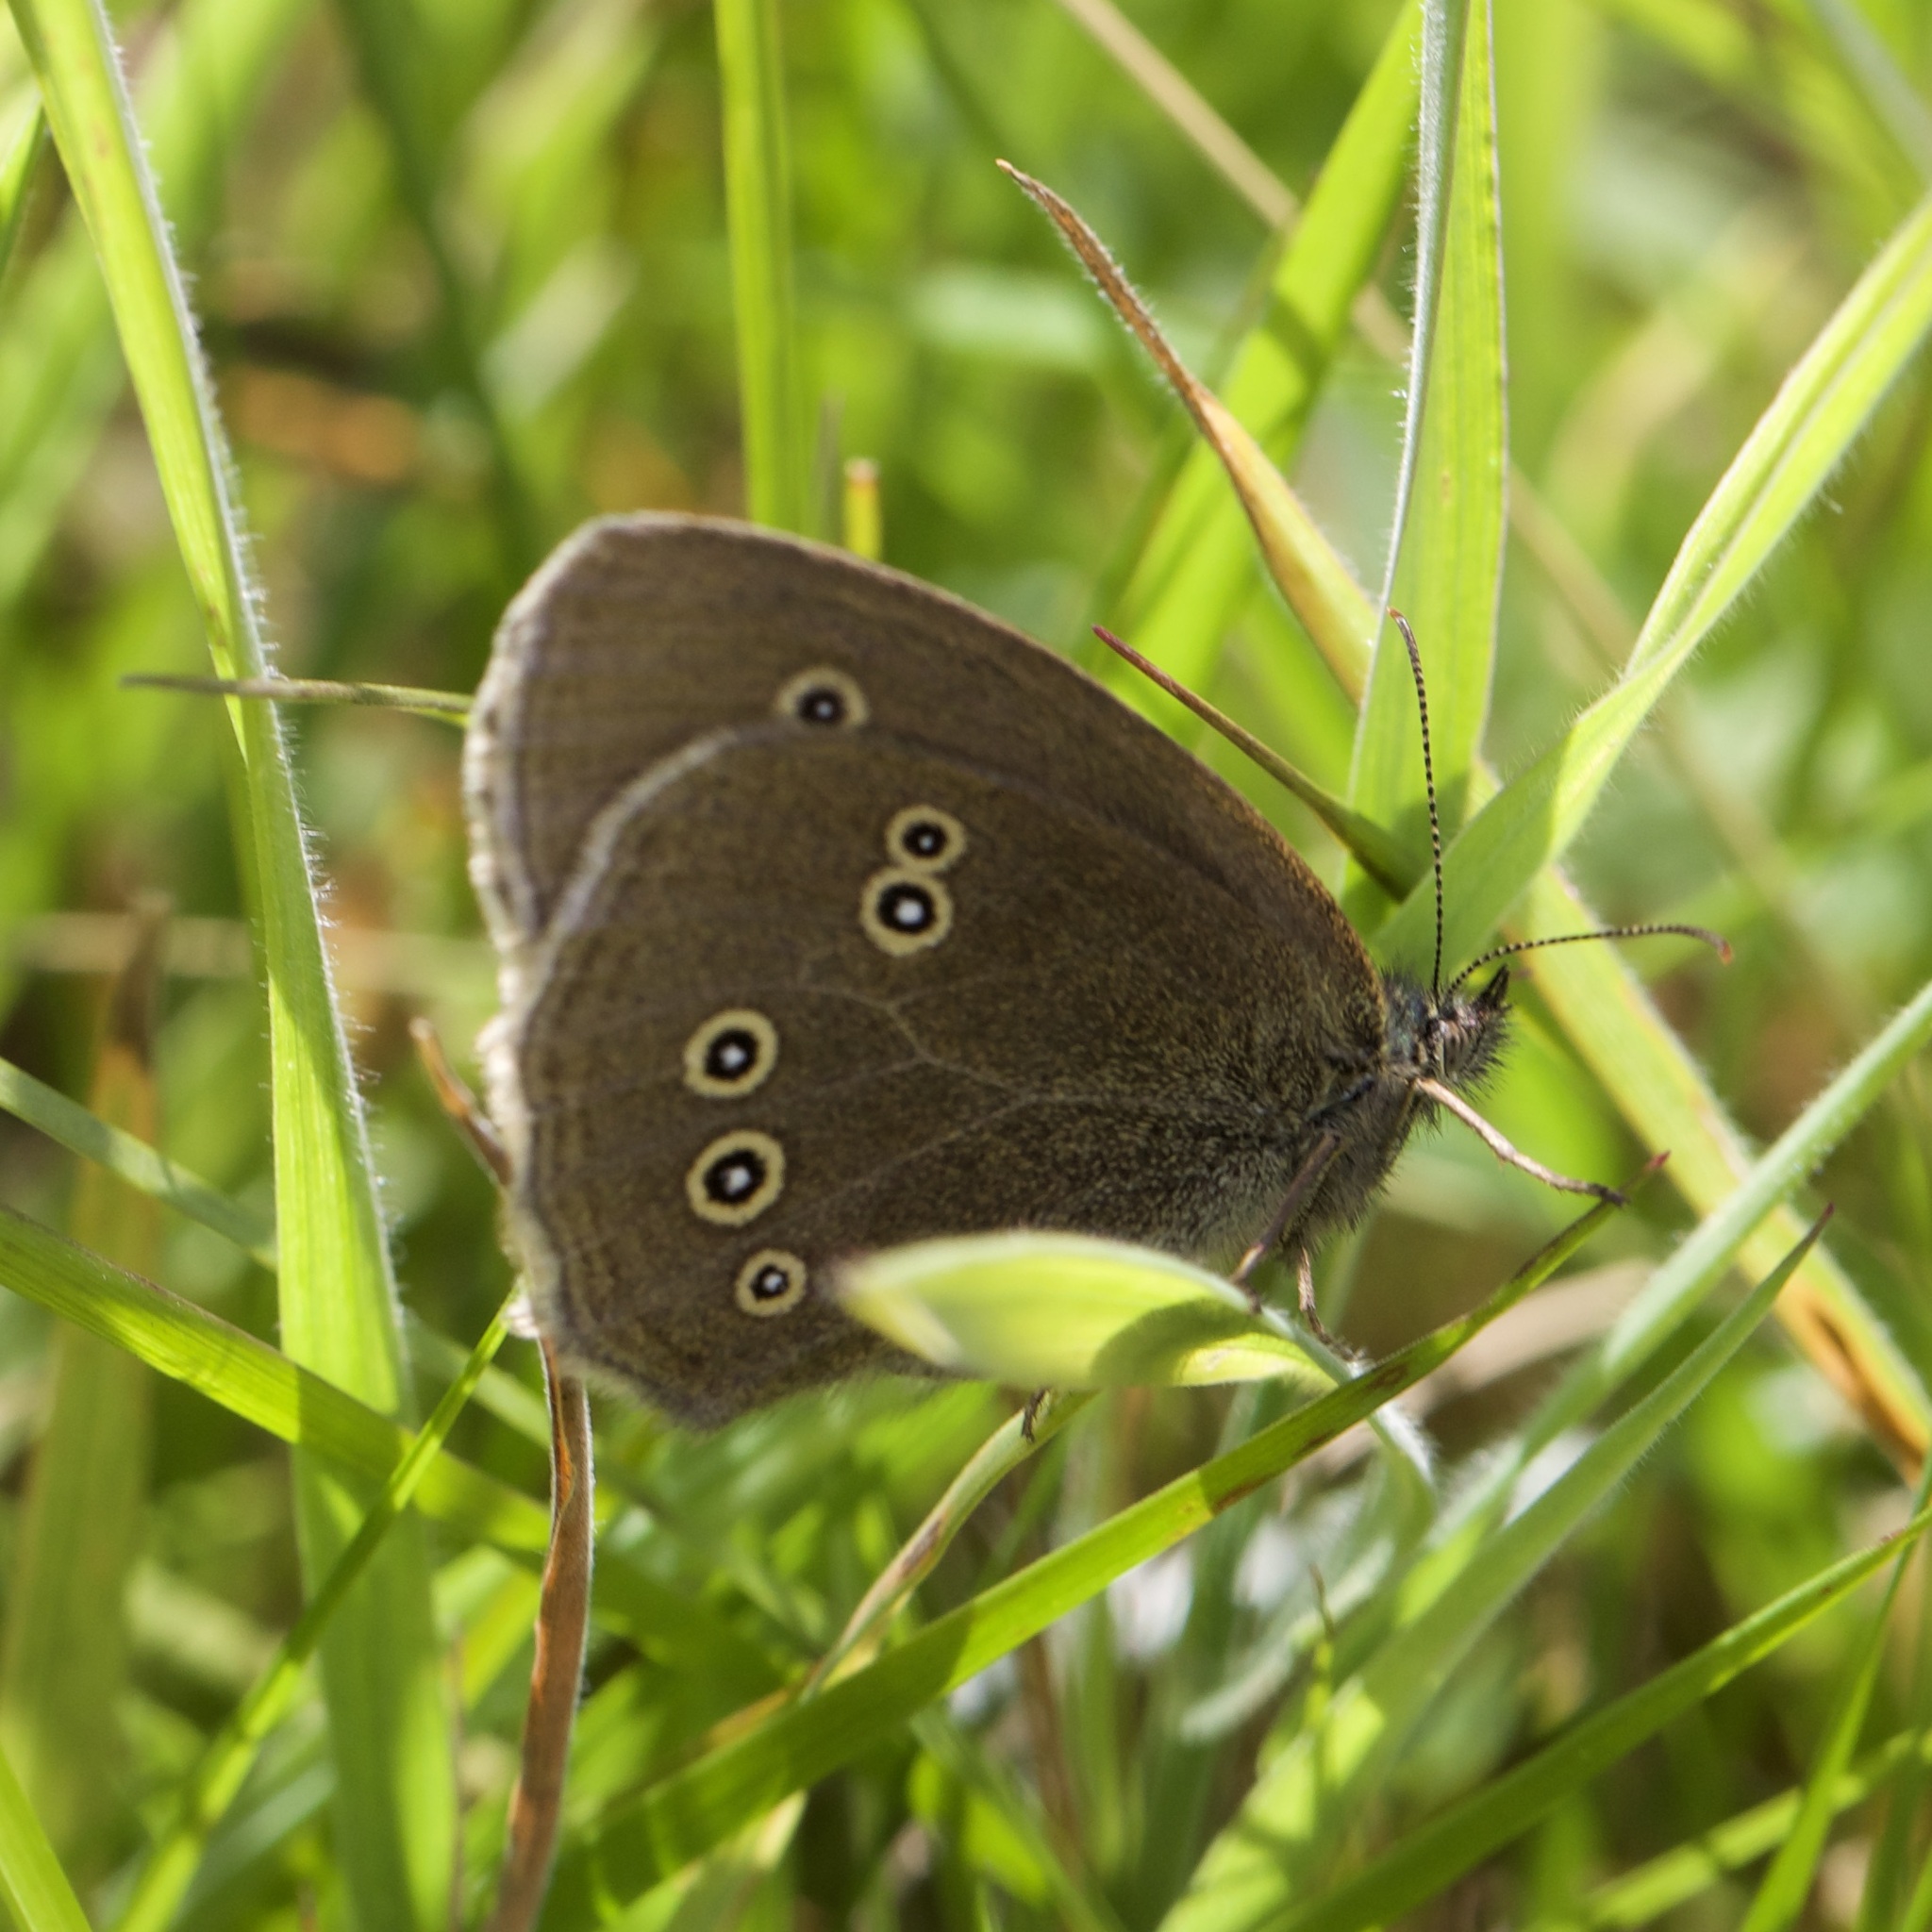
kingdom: Animalia
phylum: Arthropoda
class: Insecta
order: Lepidoptera
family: Nymphalidae
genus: Aphantopus
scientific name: Aphantopus hyperantus
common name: Ringlet
